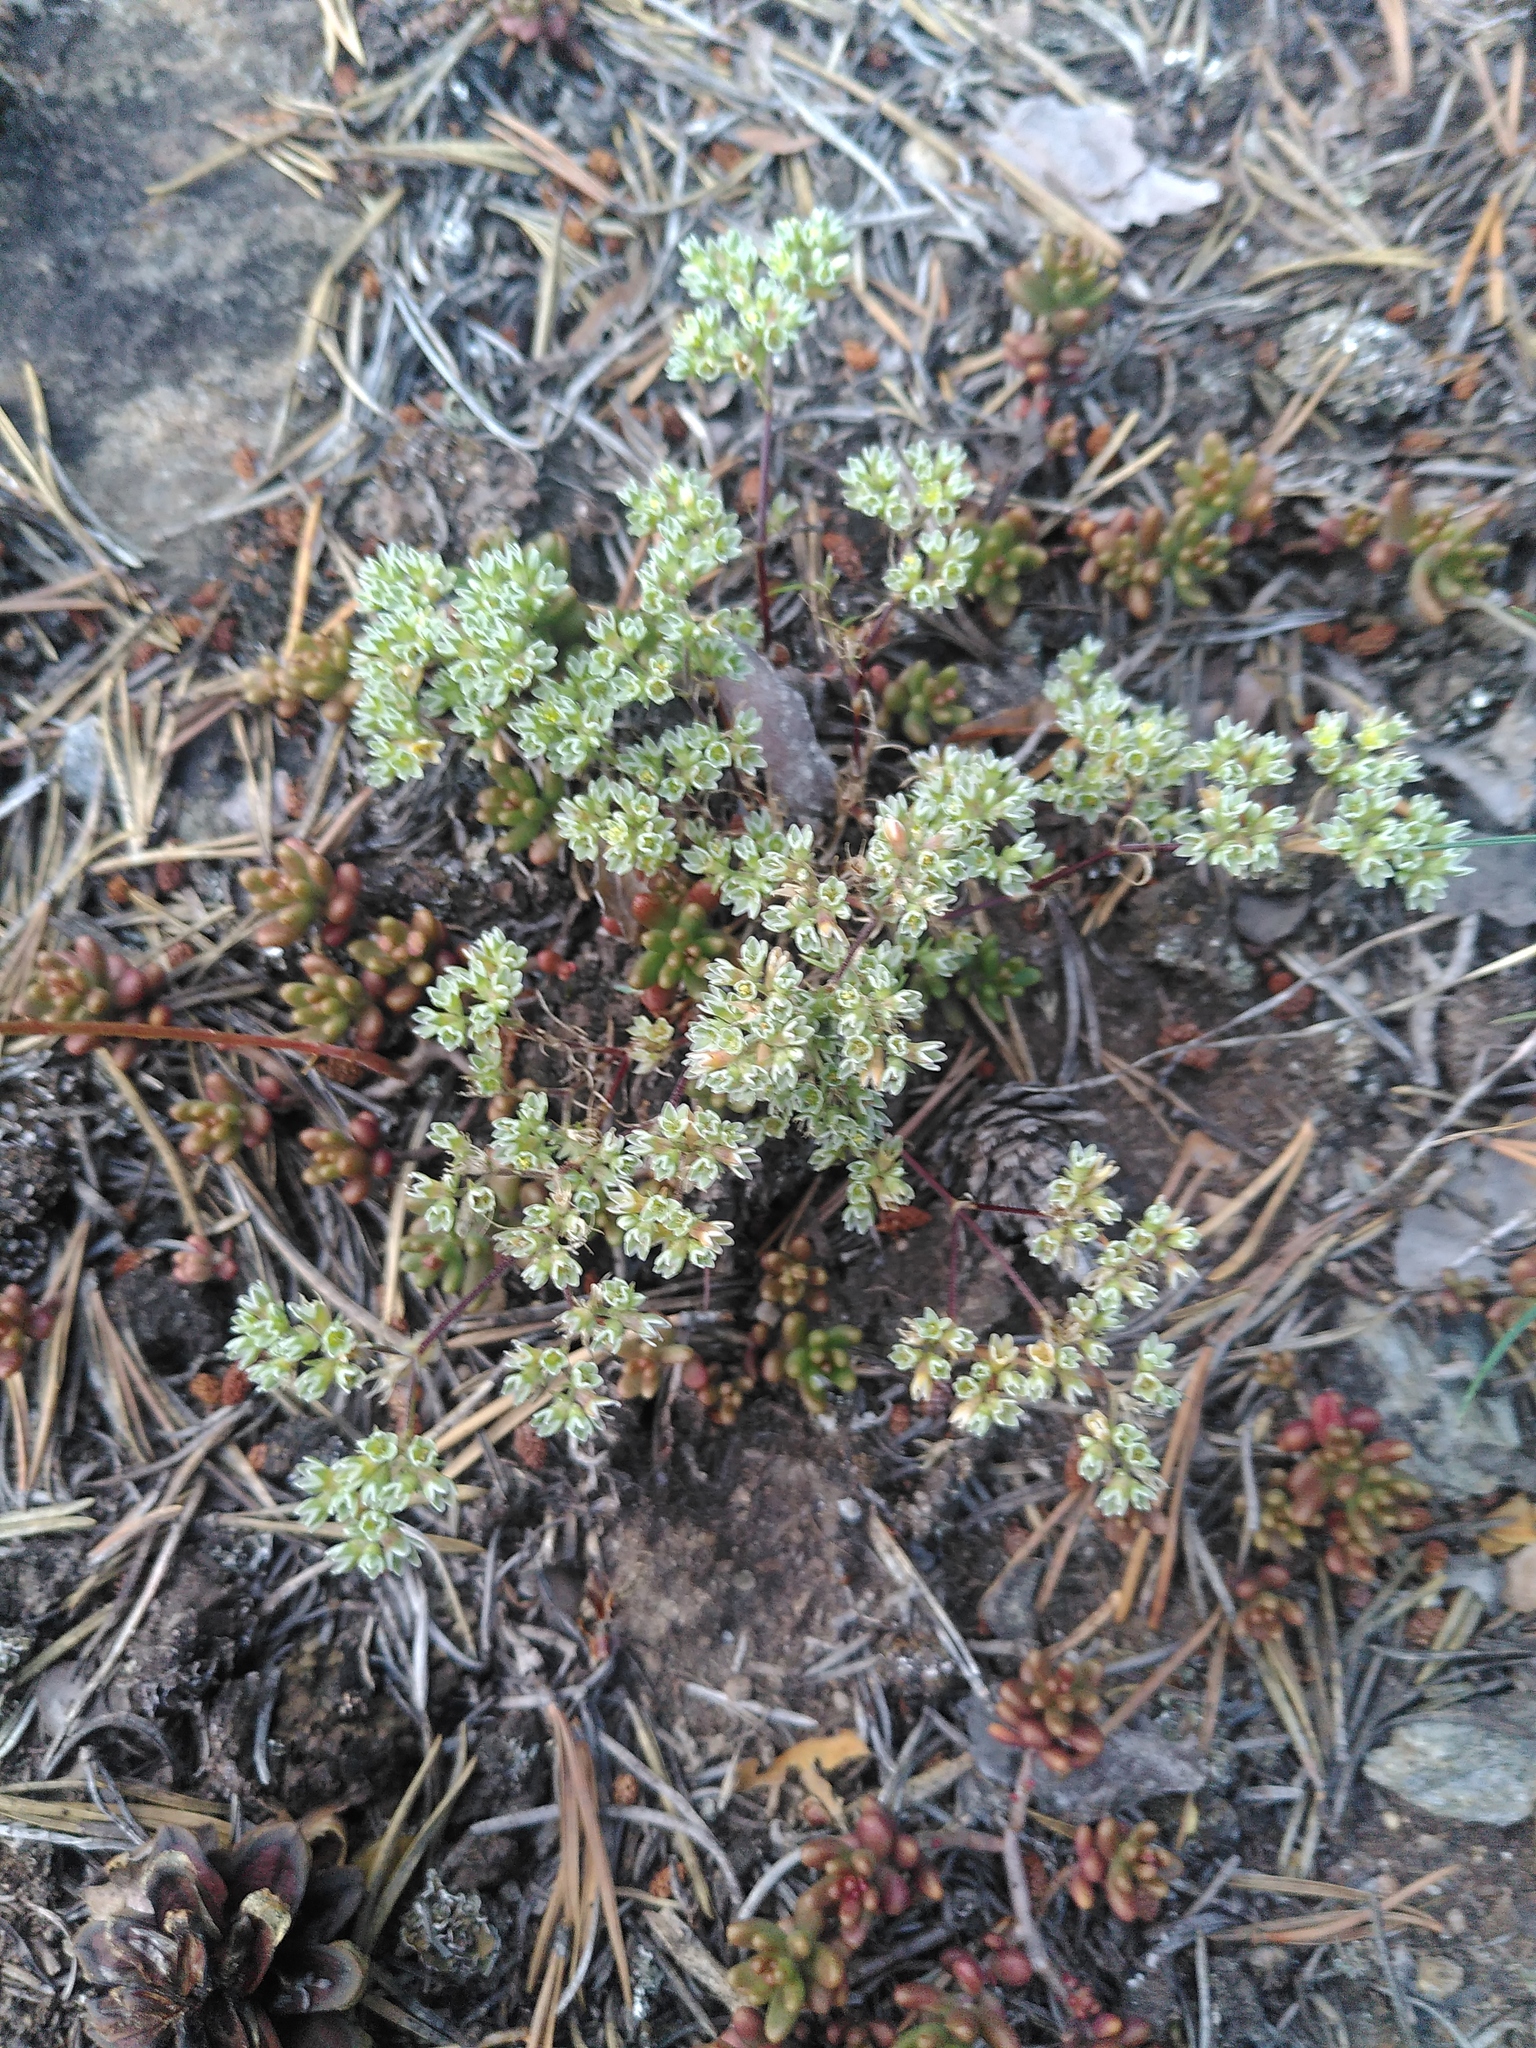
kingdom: Plantae
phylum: Tracheophyta
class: Magnoliopsida
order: Caryophyllales
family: Caryophyllaceae
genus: Scleranthus
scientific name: Scleranthus perennis
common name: Perennial knawel
